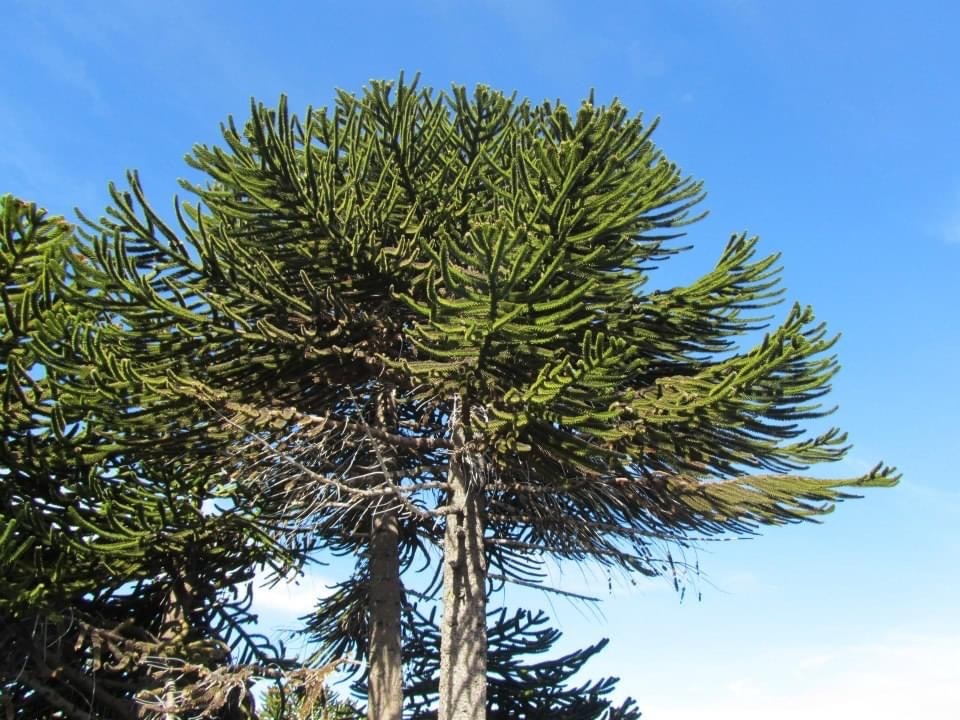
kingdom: Plantae
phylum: Tracheophyta
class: Pinopsida
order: Pinales
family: Araucariaceae
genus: Araucaria
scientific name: Araucaria araucana
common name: Monkey-puzzle
